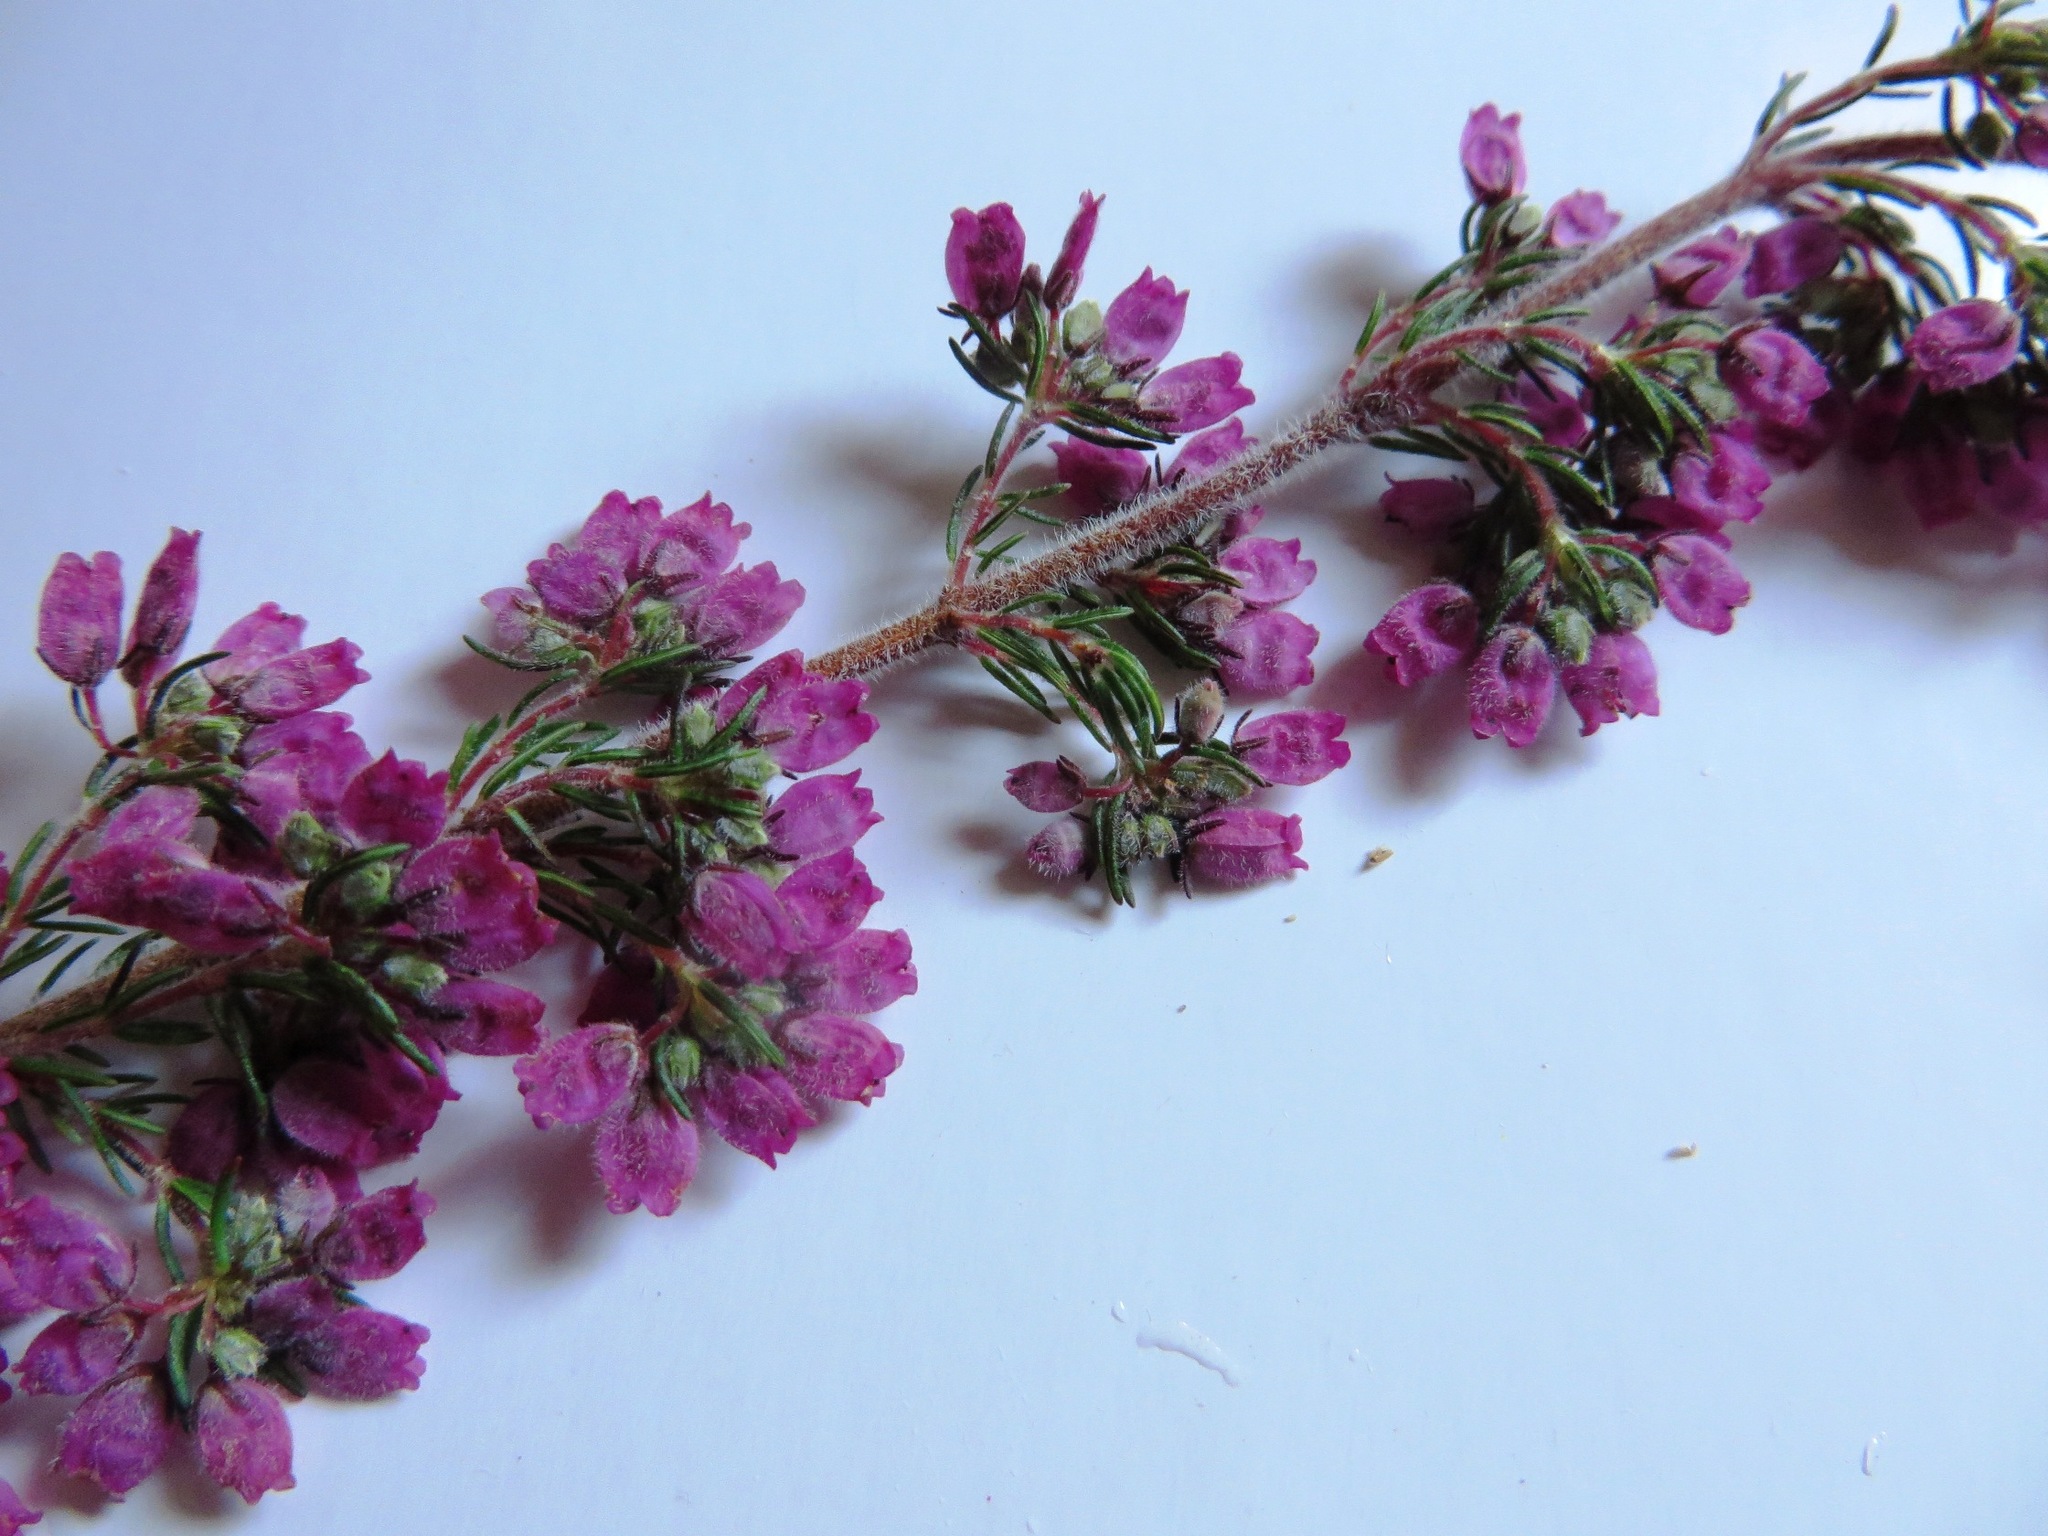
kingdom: Plantae
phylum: Tracheophyta
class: Magnoliopsida
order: Ericales
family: Ericaceae
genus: Erica
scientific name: Erica hirtiflora
